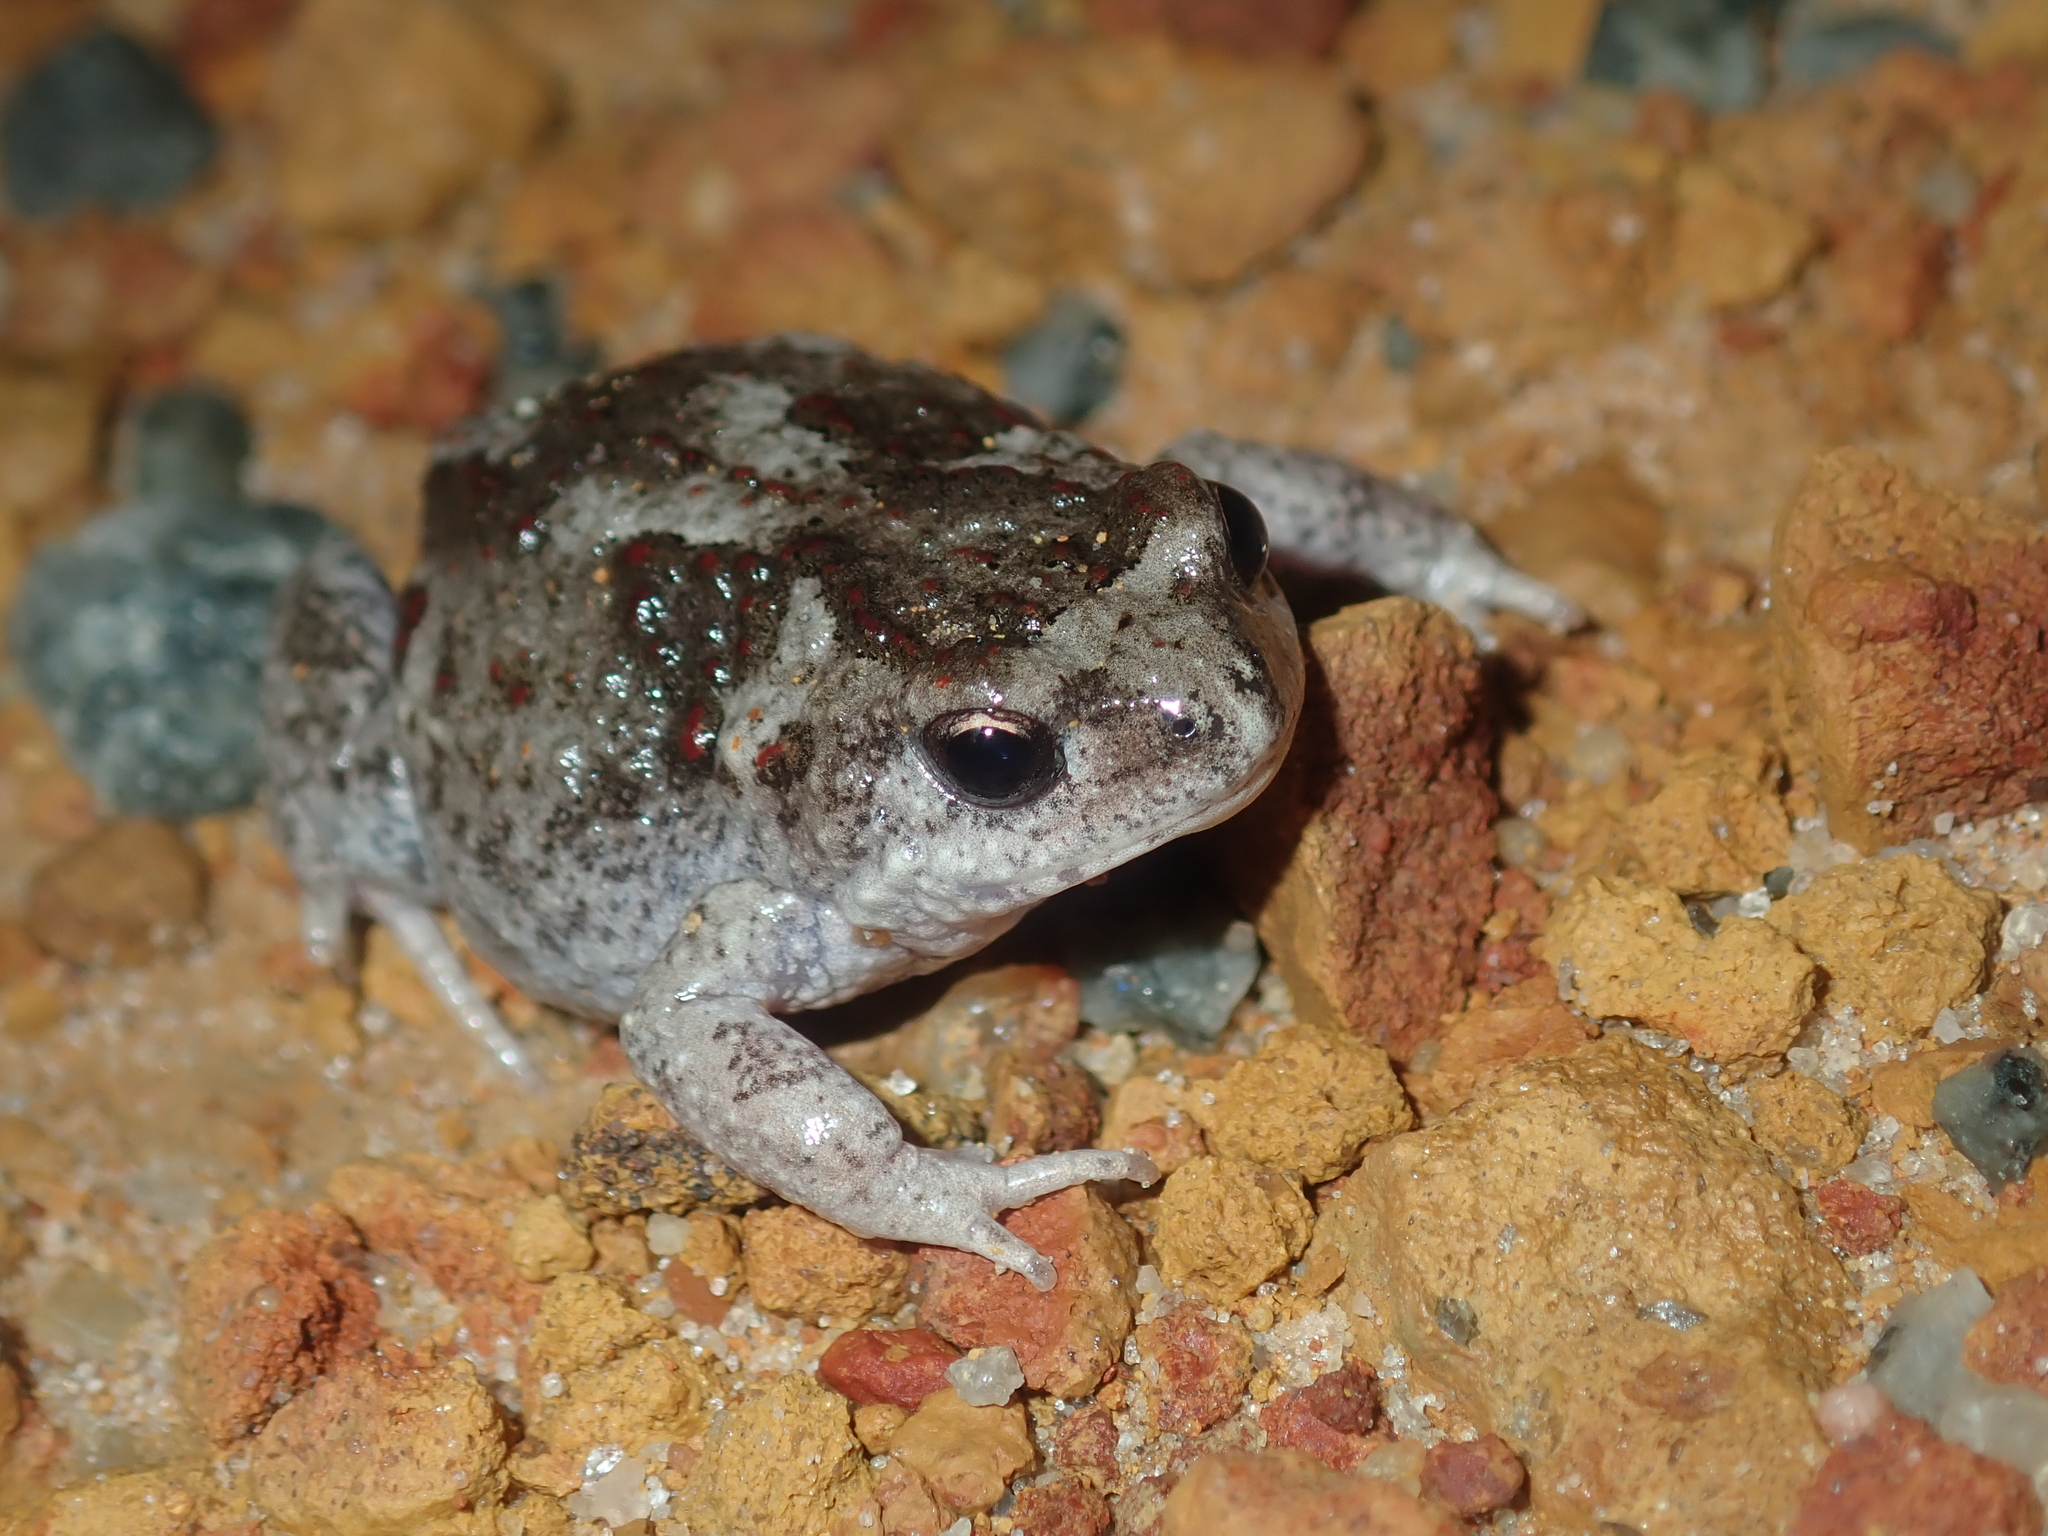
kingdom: Animalia
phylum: Chordata
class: Amphibia
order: Anura
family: Myobatrachidae
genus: Pseudophryne
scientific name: Pseudophryne guentheri
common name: Günther’s toadlet
